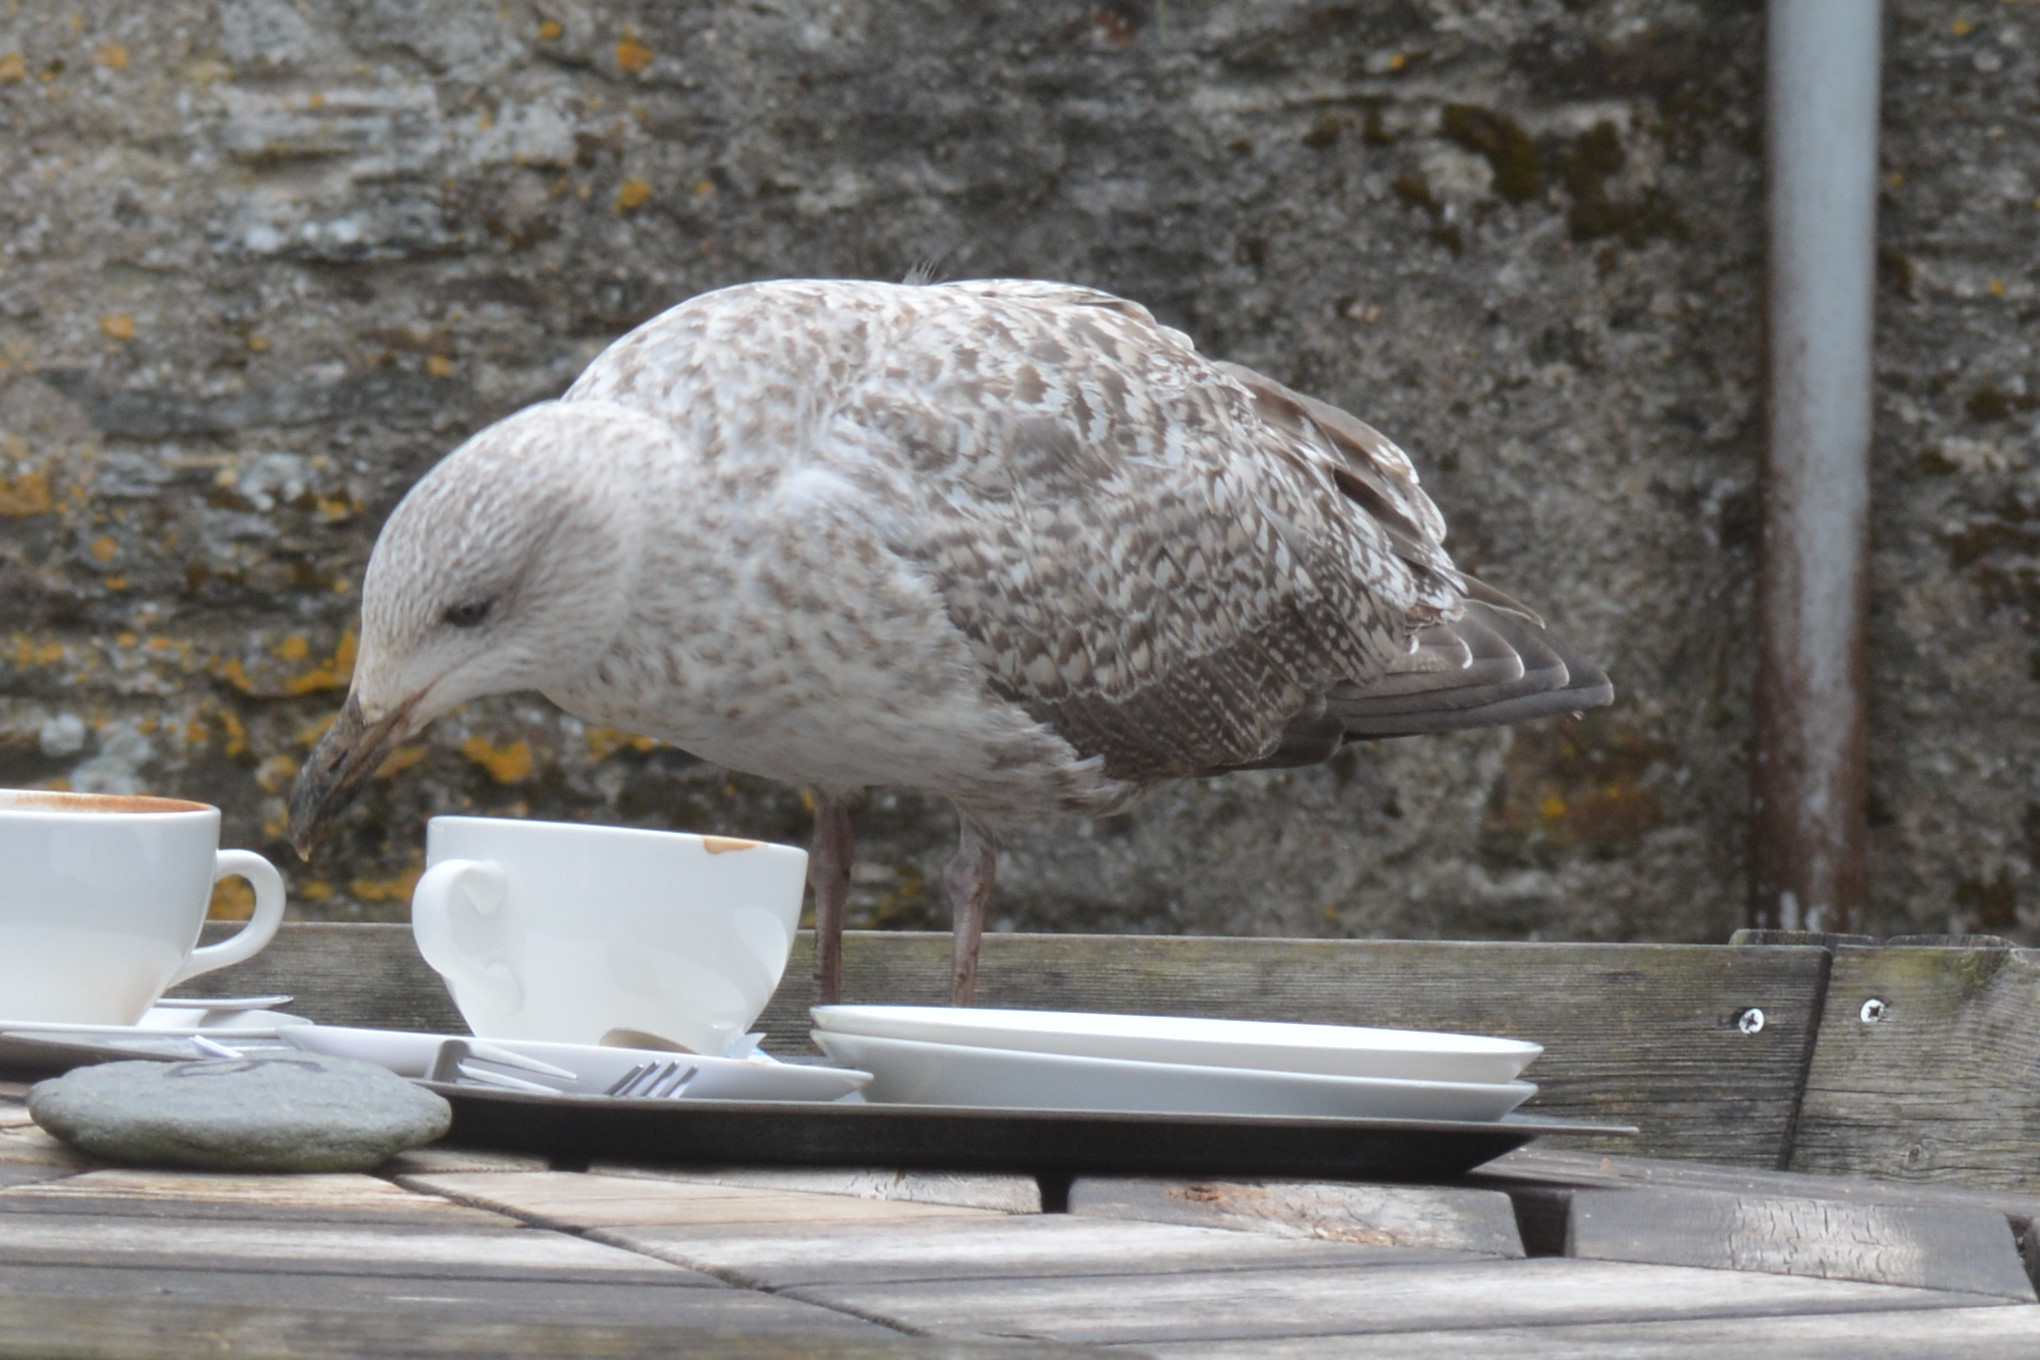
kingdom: Animalia
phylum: Chordata
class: Aves
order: Charadriiformes
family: Laridae
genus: Larus
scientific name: Larus argentatus
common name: Herring gull
